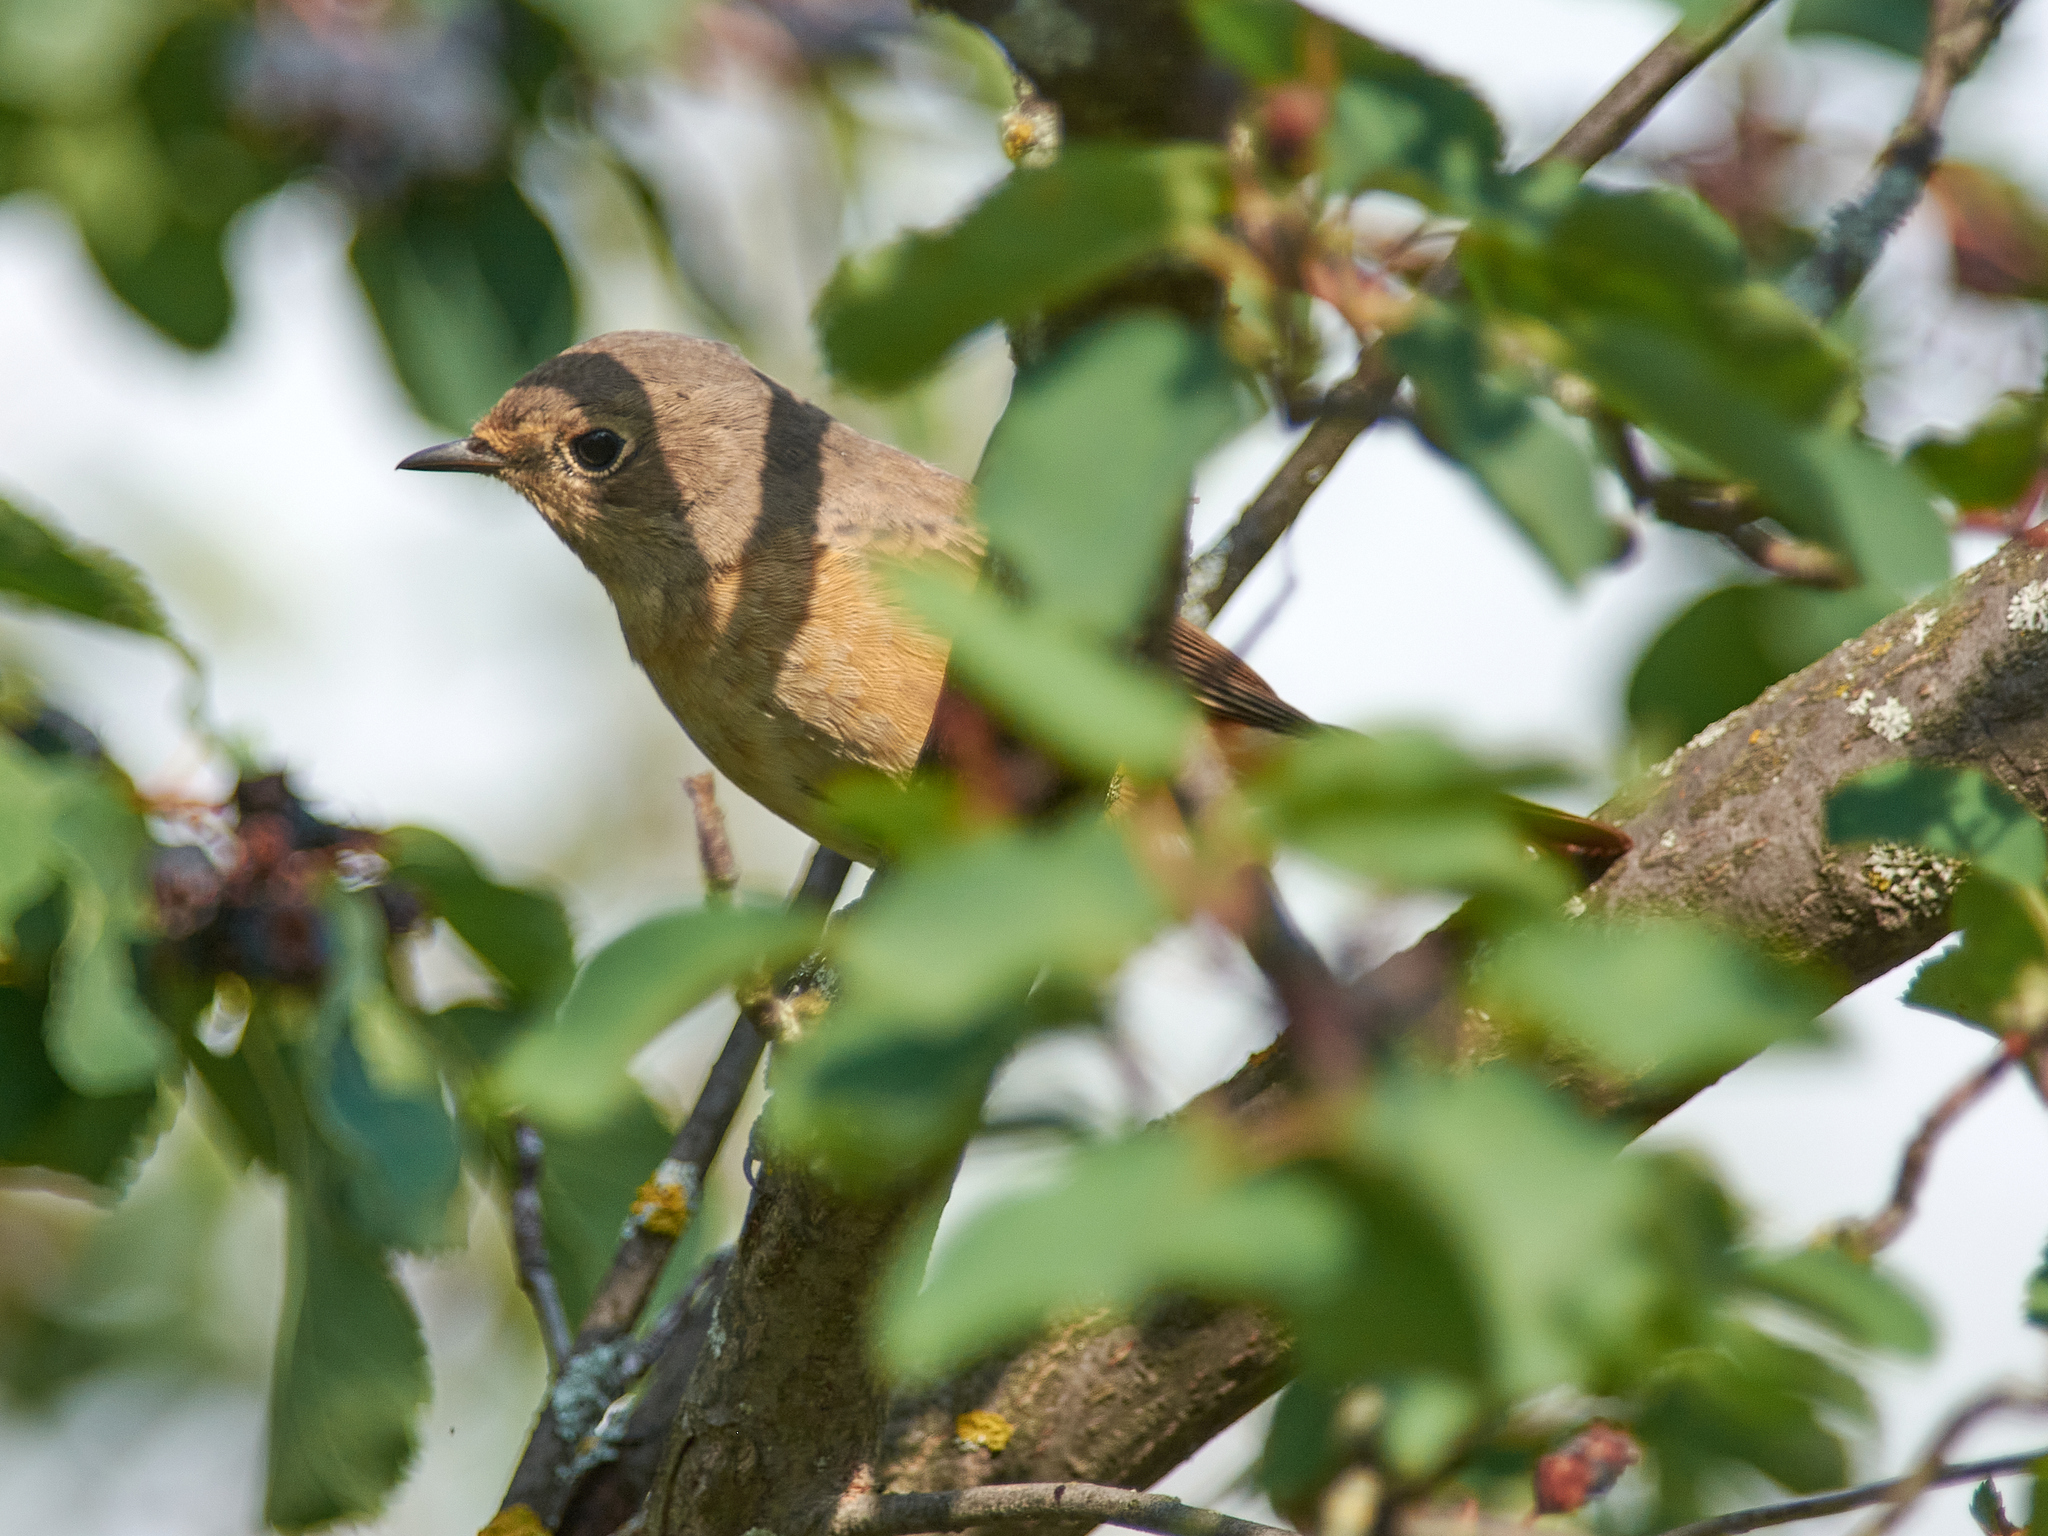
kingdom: Animalia
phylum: Chordata
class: Aves
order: Passeriformes
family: Muscicapidae
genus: Phoenicurus
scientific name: Phoenicurus phoenicurus
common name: Common redstart
